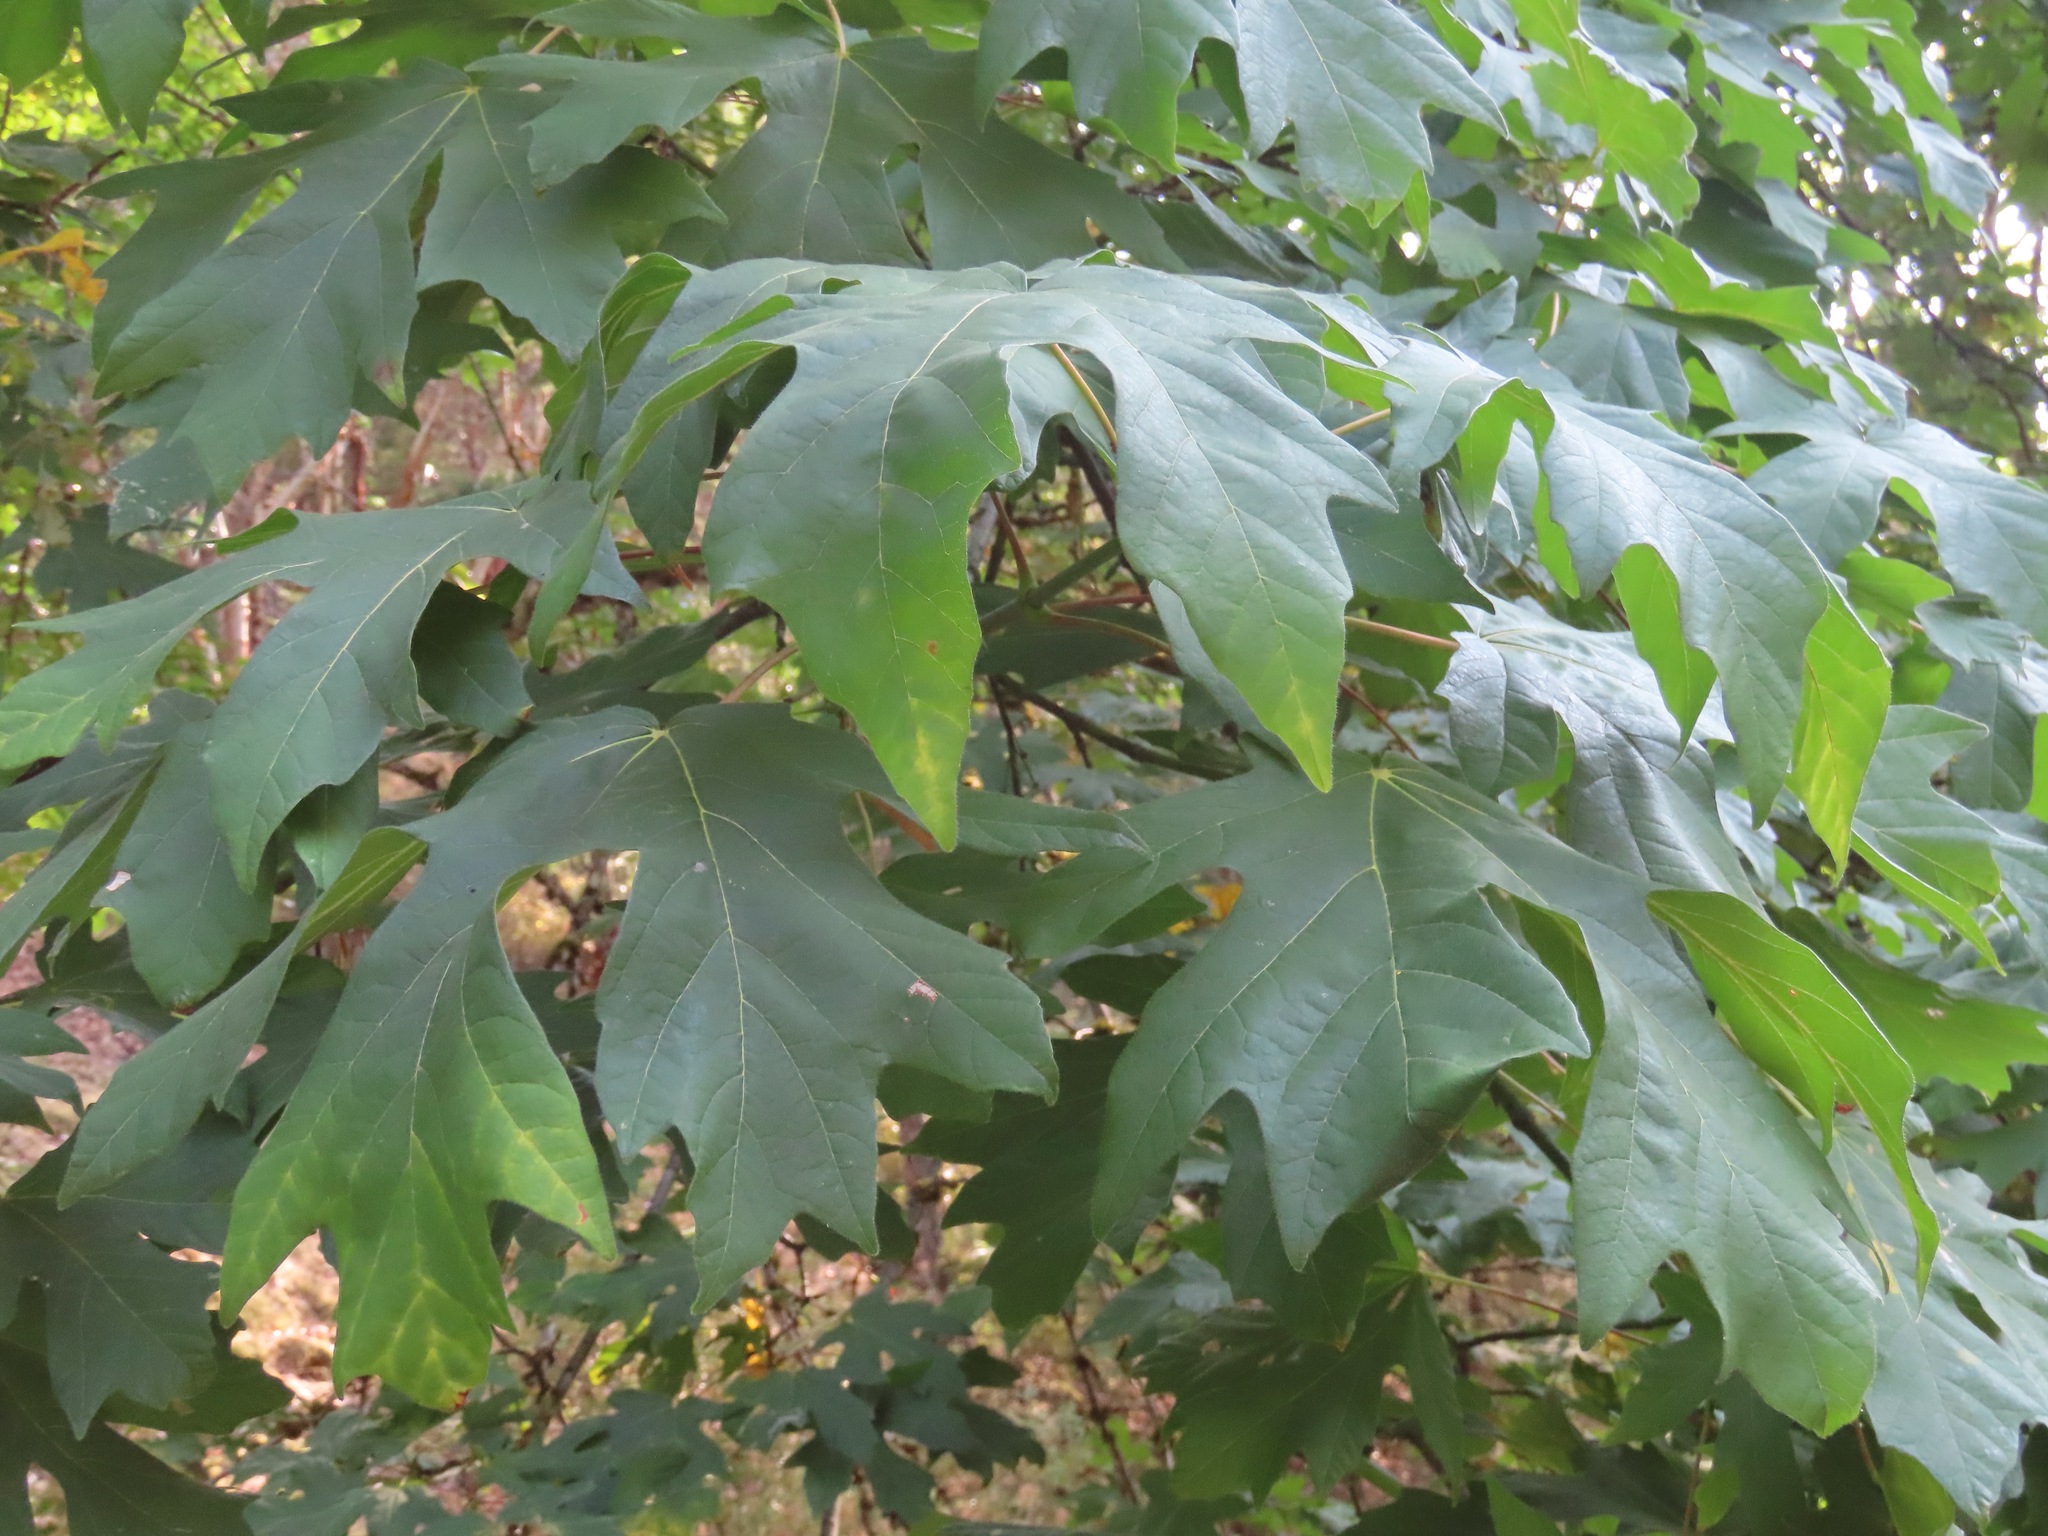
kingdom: Plantae
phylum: Tracheophyta
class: Magnoliopsida
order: Sapindales
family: Sapindaceae
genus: Acer
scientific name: Acer macrophyllum
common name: Oregon maple
